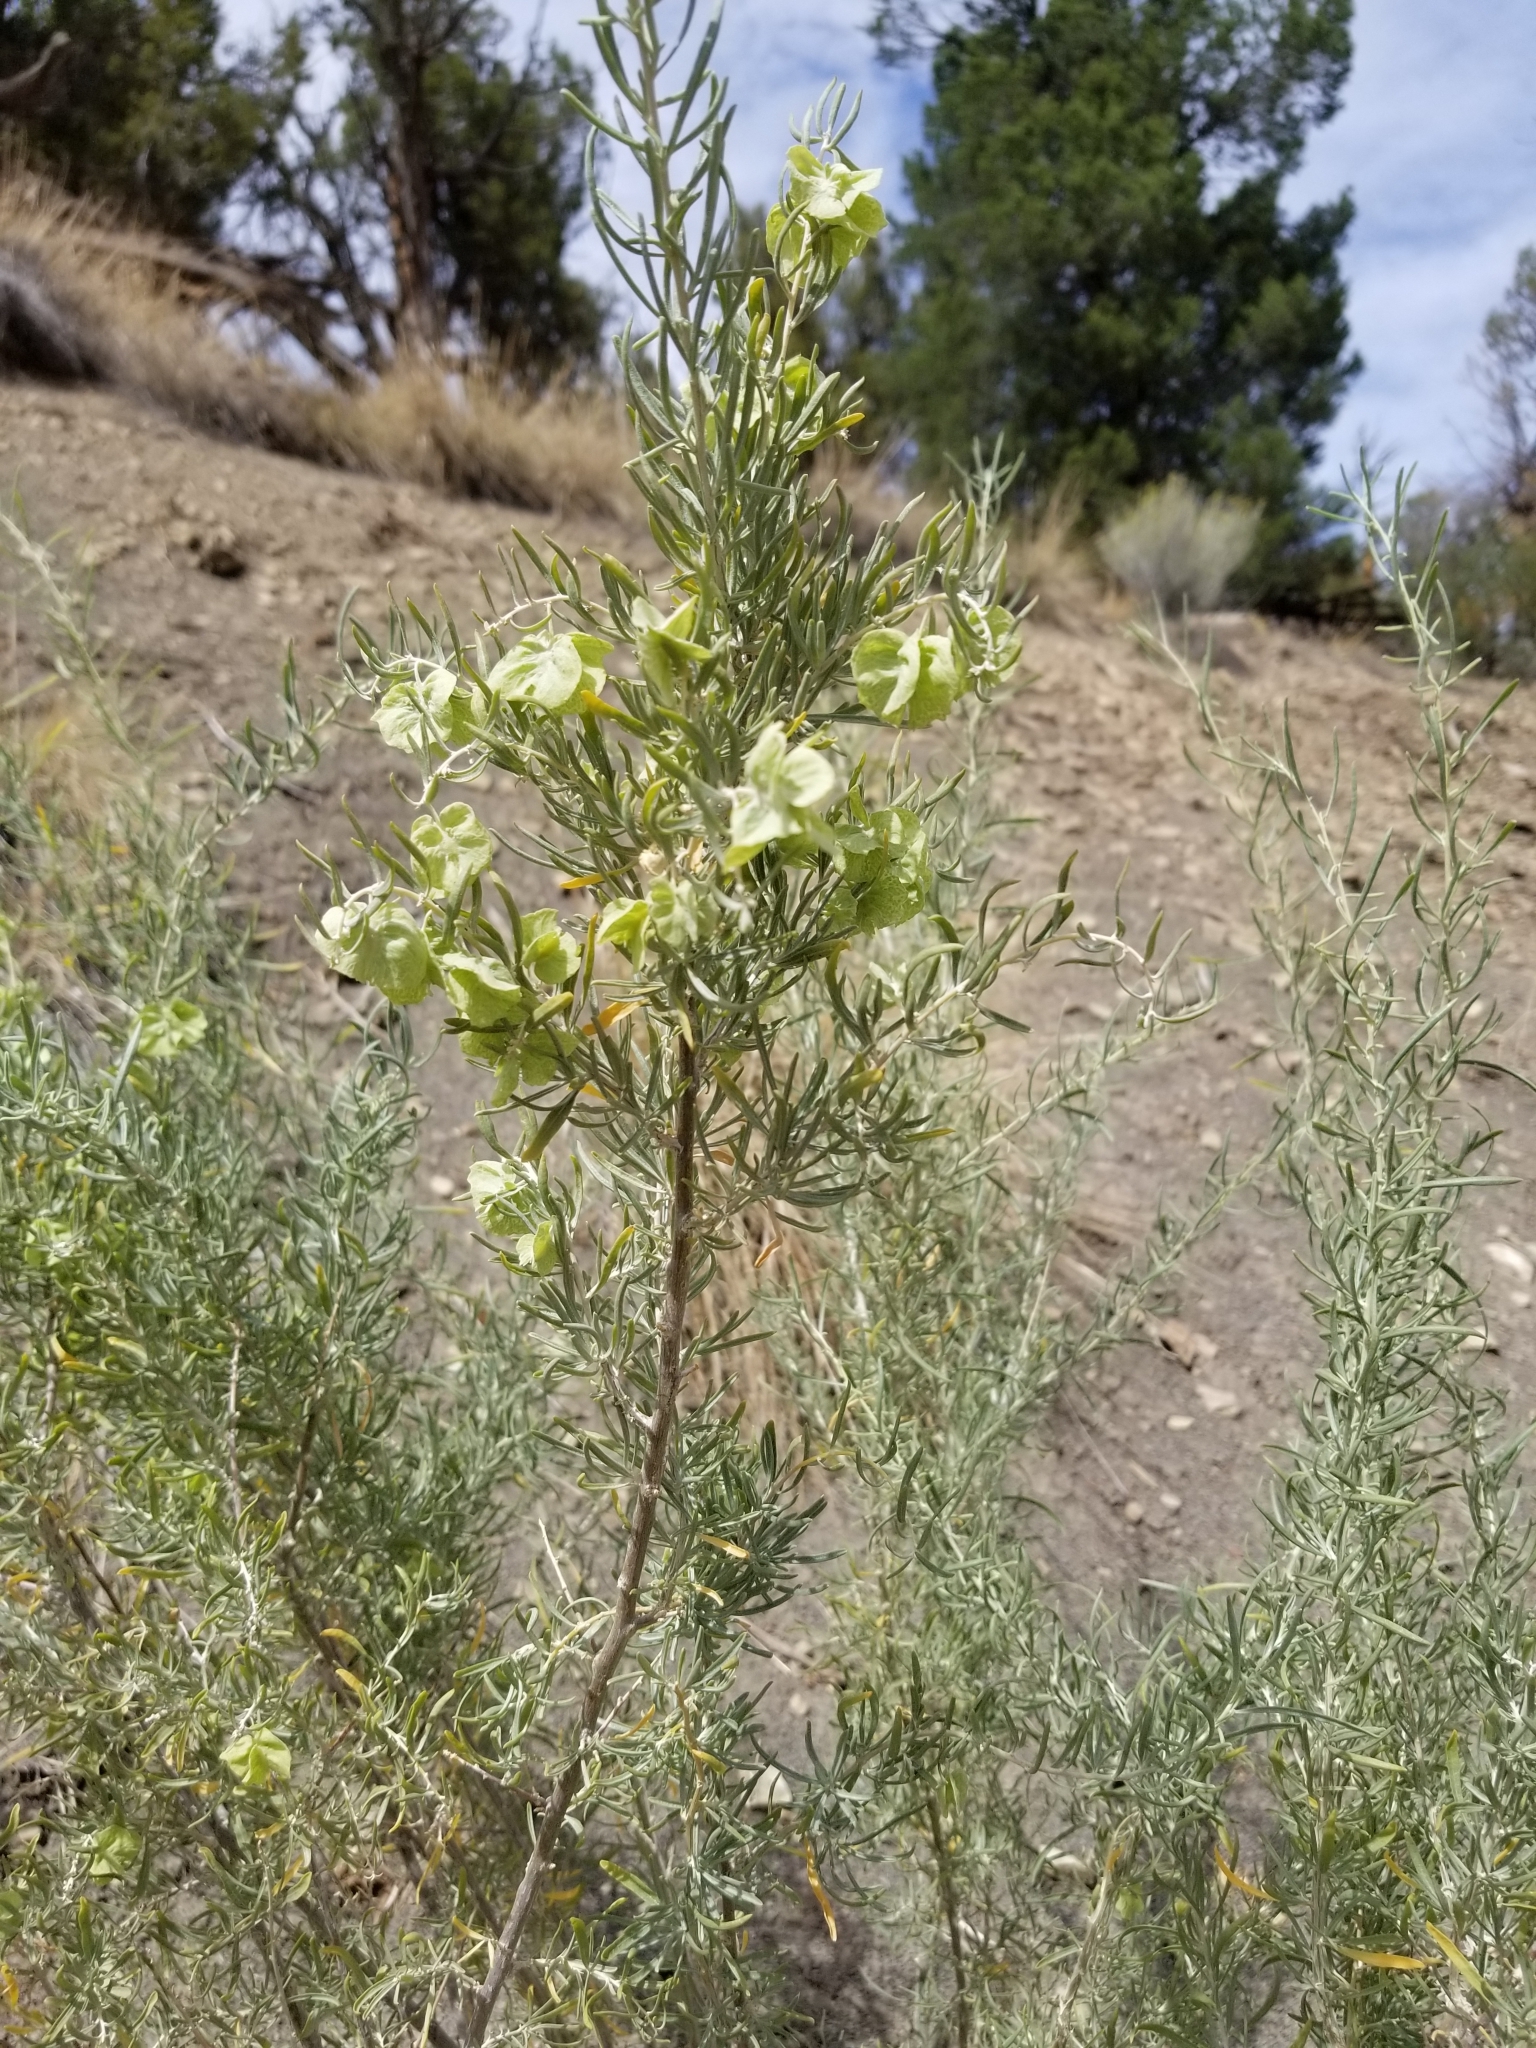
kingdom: Plantae
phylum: Tracheophyta
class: Magnoliopsida
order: Caryophyllales
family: Amaranthaceae
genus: Atriplex
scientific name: Atriplex canescens
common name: Four-wing saltbush
